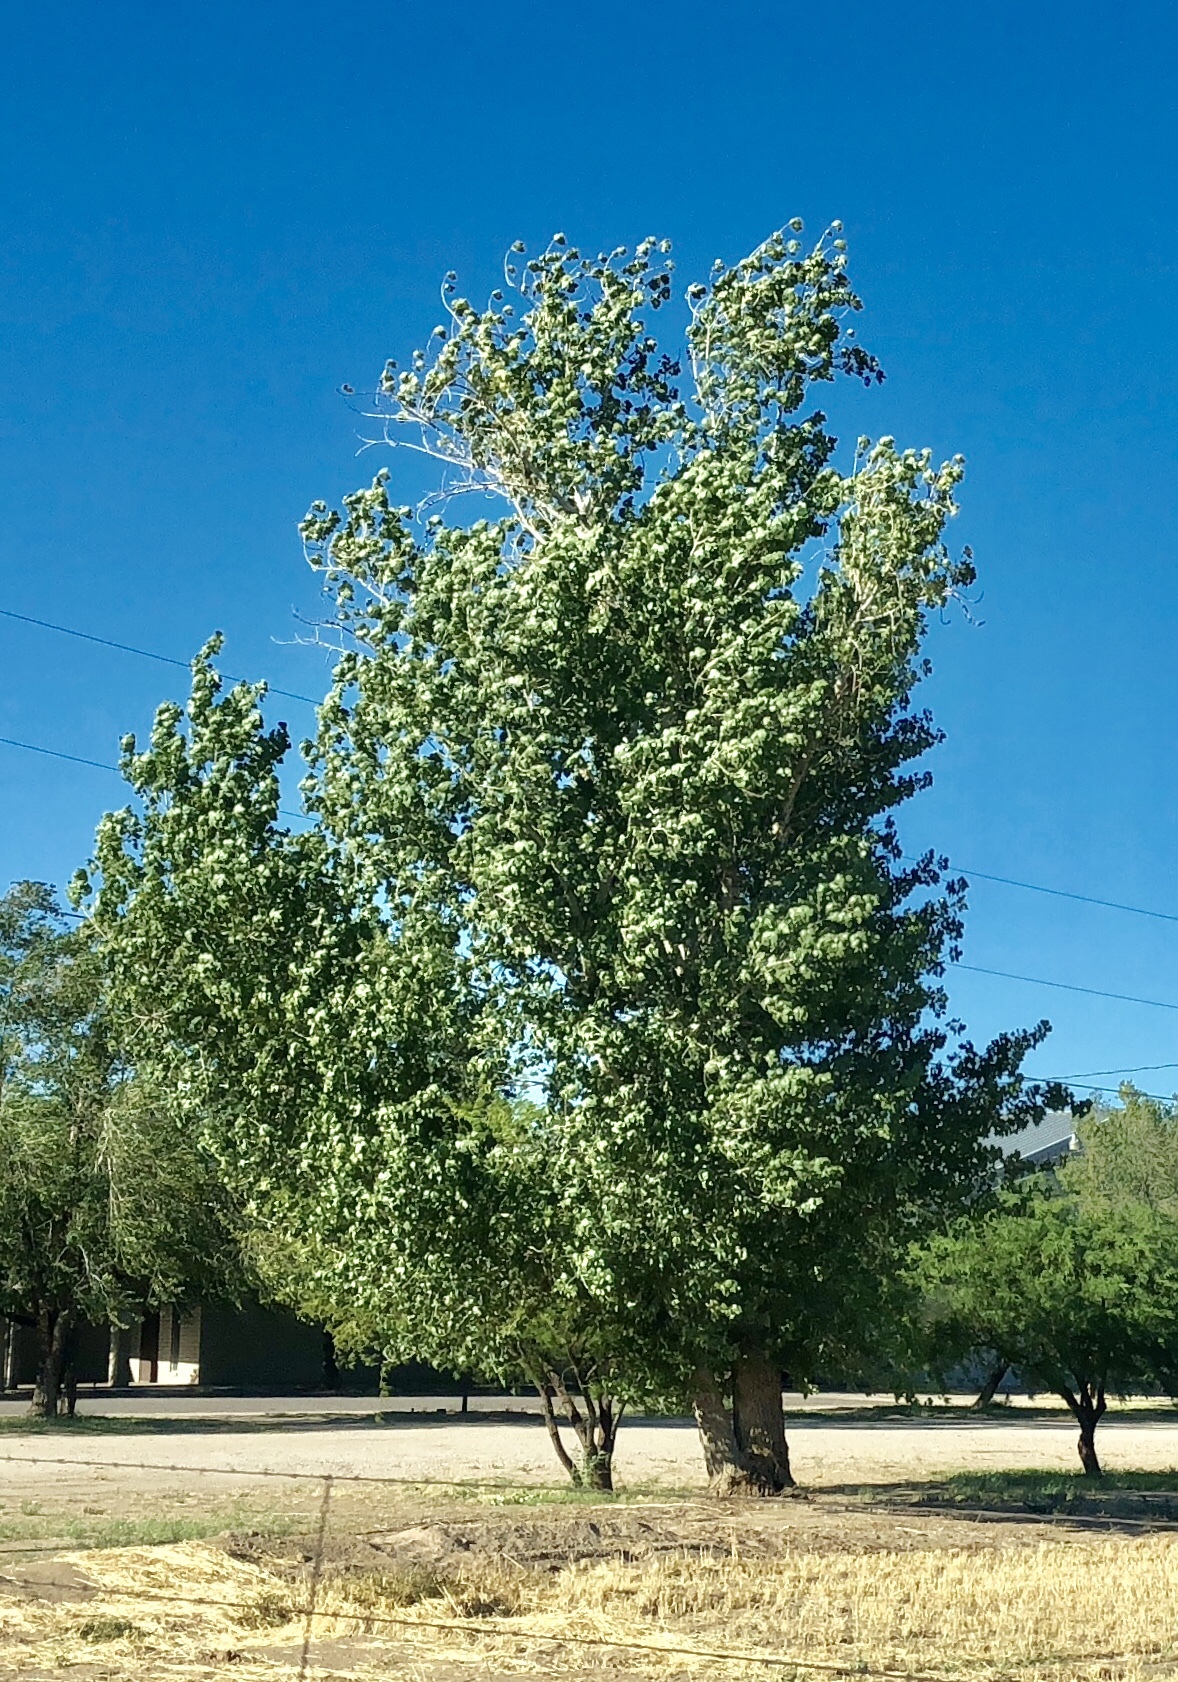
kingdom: Plantae
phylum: Tracheophyta
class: Magnoliopsida
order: Malpighiales
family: Salicaceae
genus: Populus
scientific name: Populus fremontii
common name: Fremont's cottonwood
